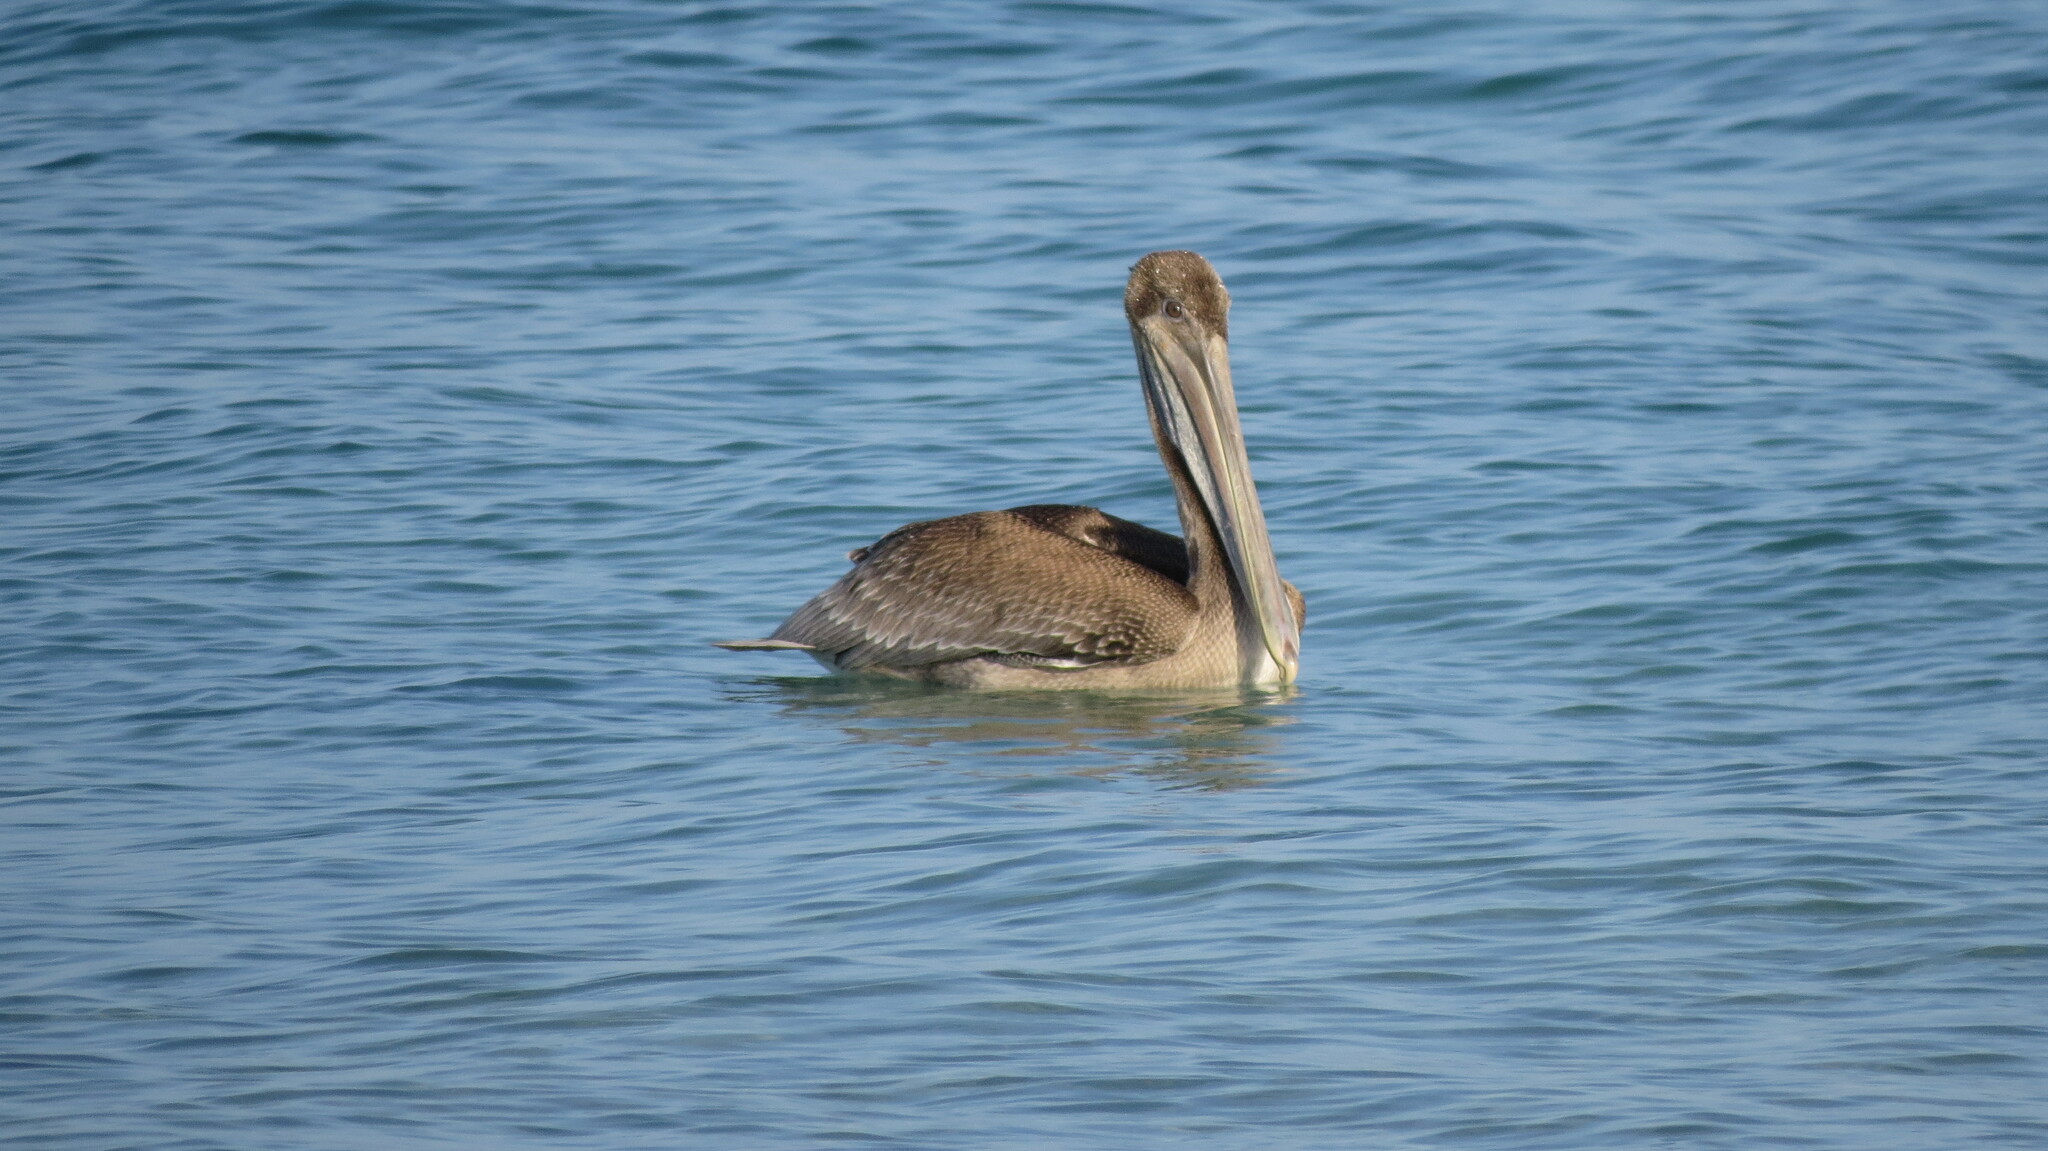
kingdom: Animalia
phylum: Chordata
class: Aves
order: Pelecaniformes
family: Pelecanidae
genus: Pelecanus
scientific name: Pelecanus occidentalis
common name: Brown pelican
